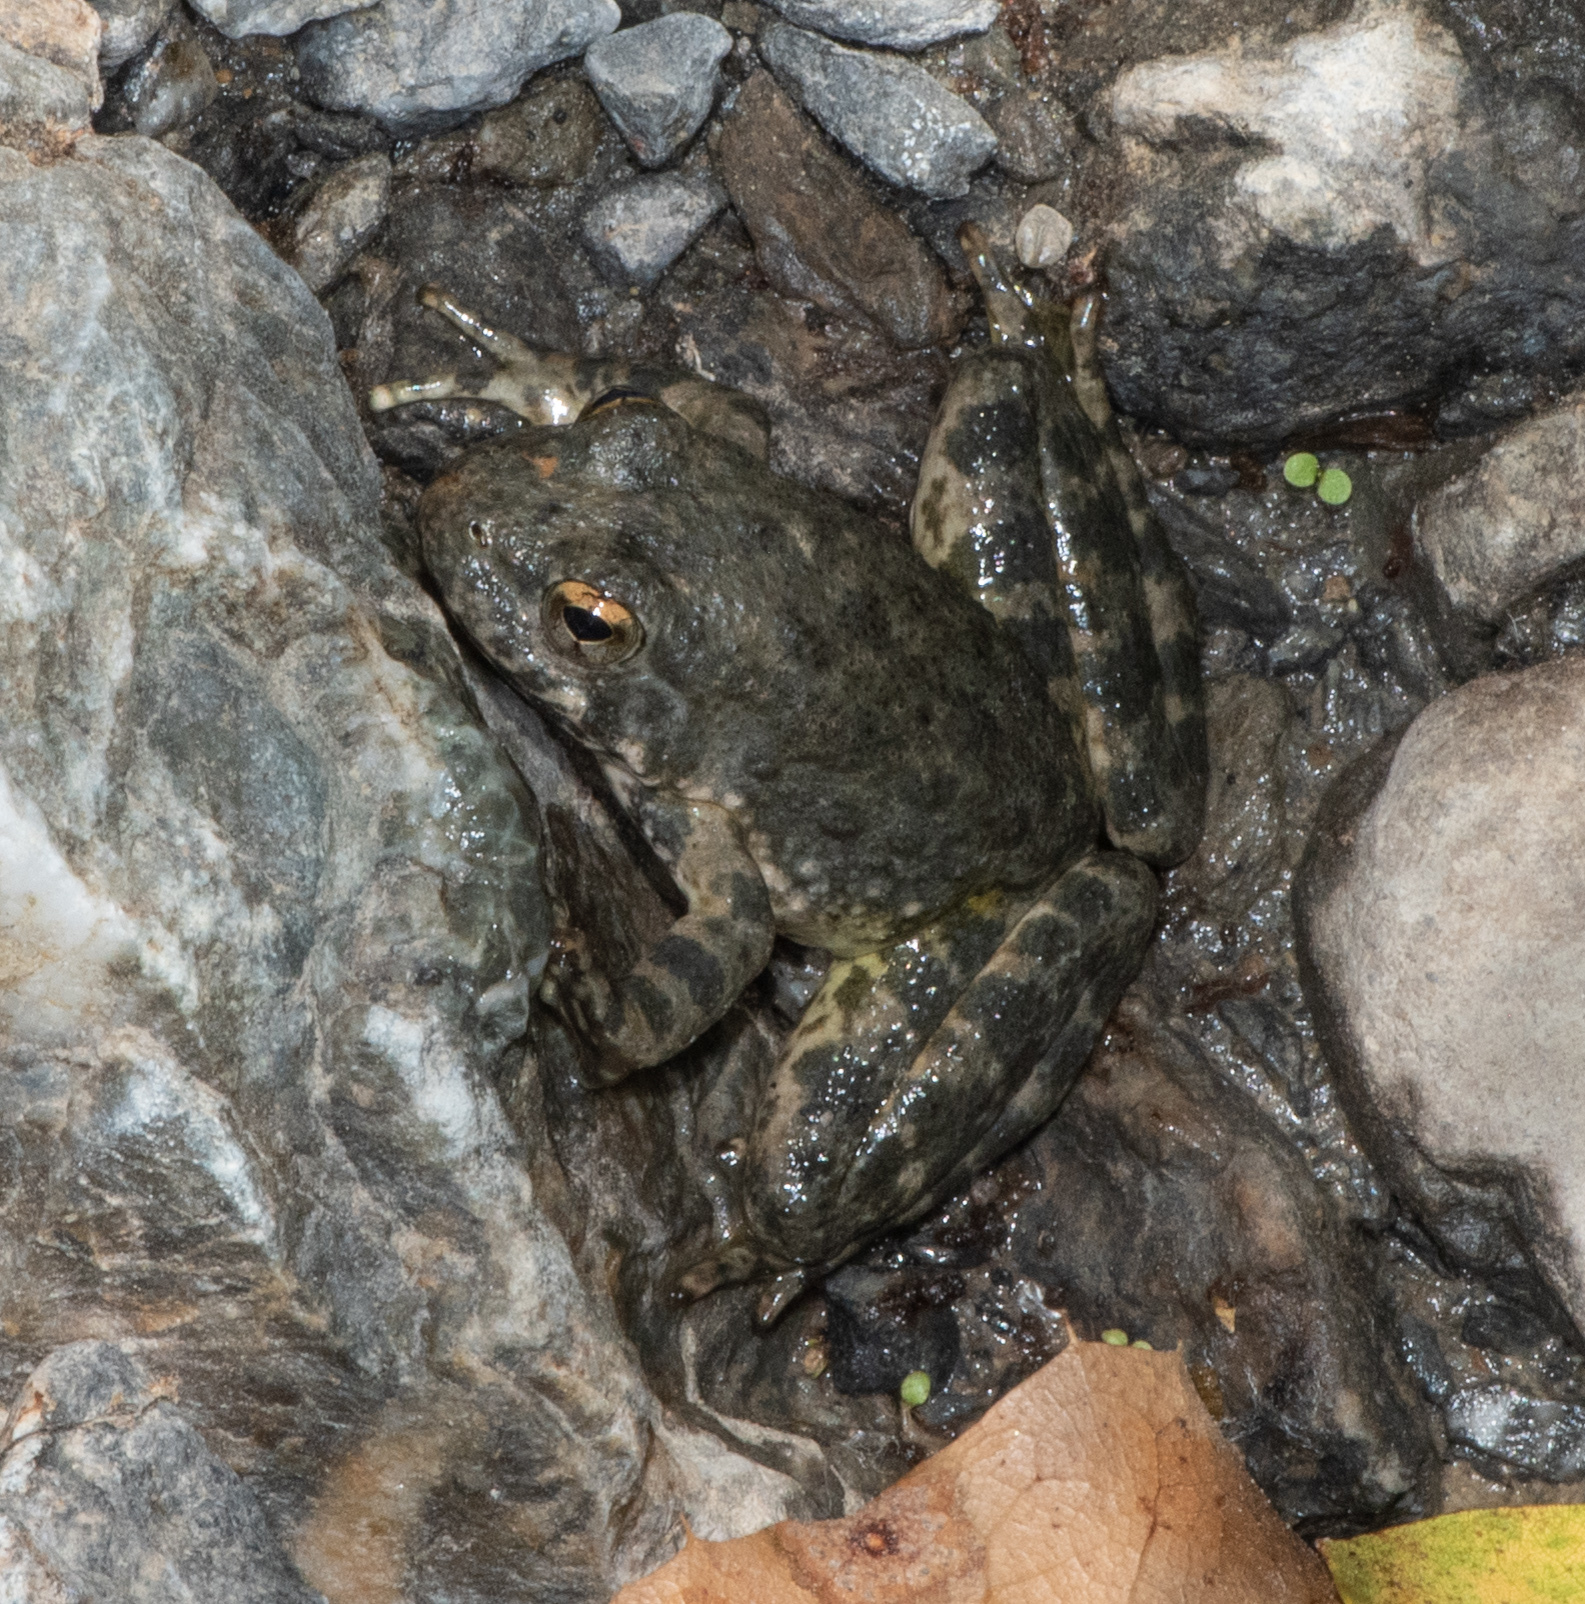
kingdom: Animalia
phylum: Chordata
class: Amphibia
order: Anura
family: Ranidae
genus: Rana
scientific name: Rana boylii
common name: Foothill yellow-legged frog
